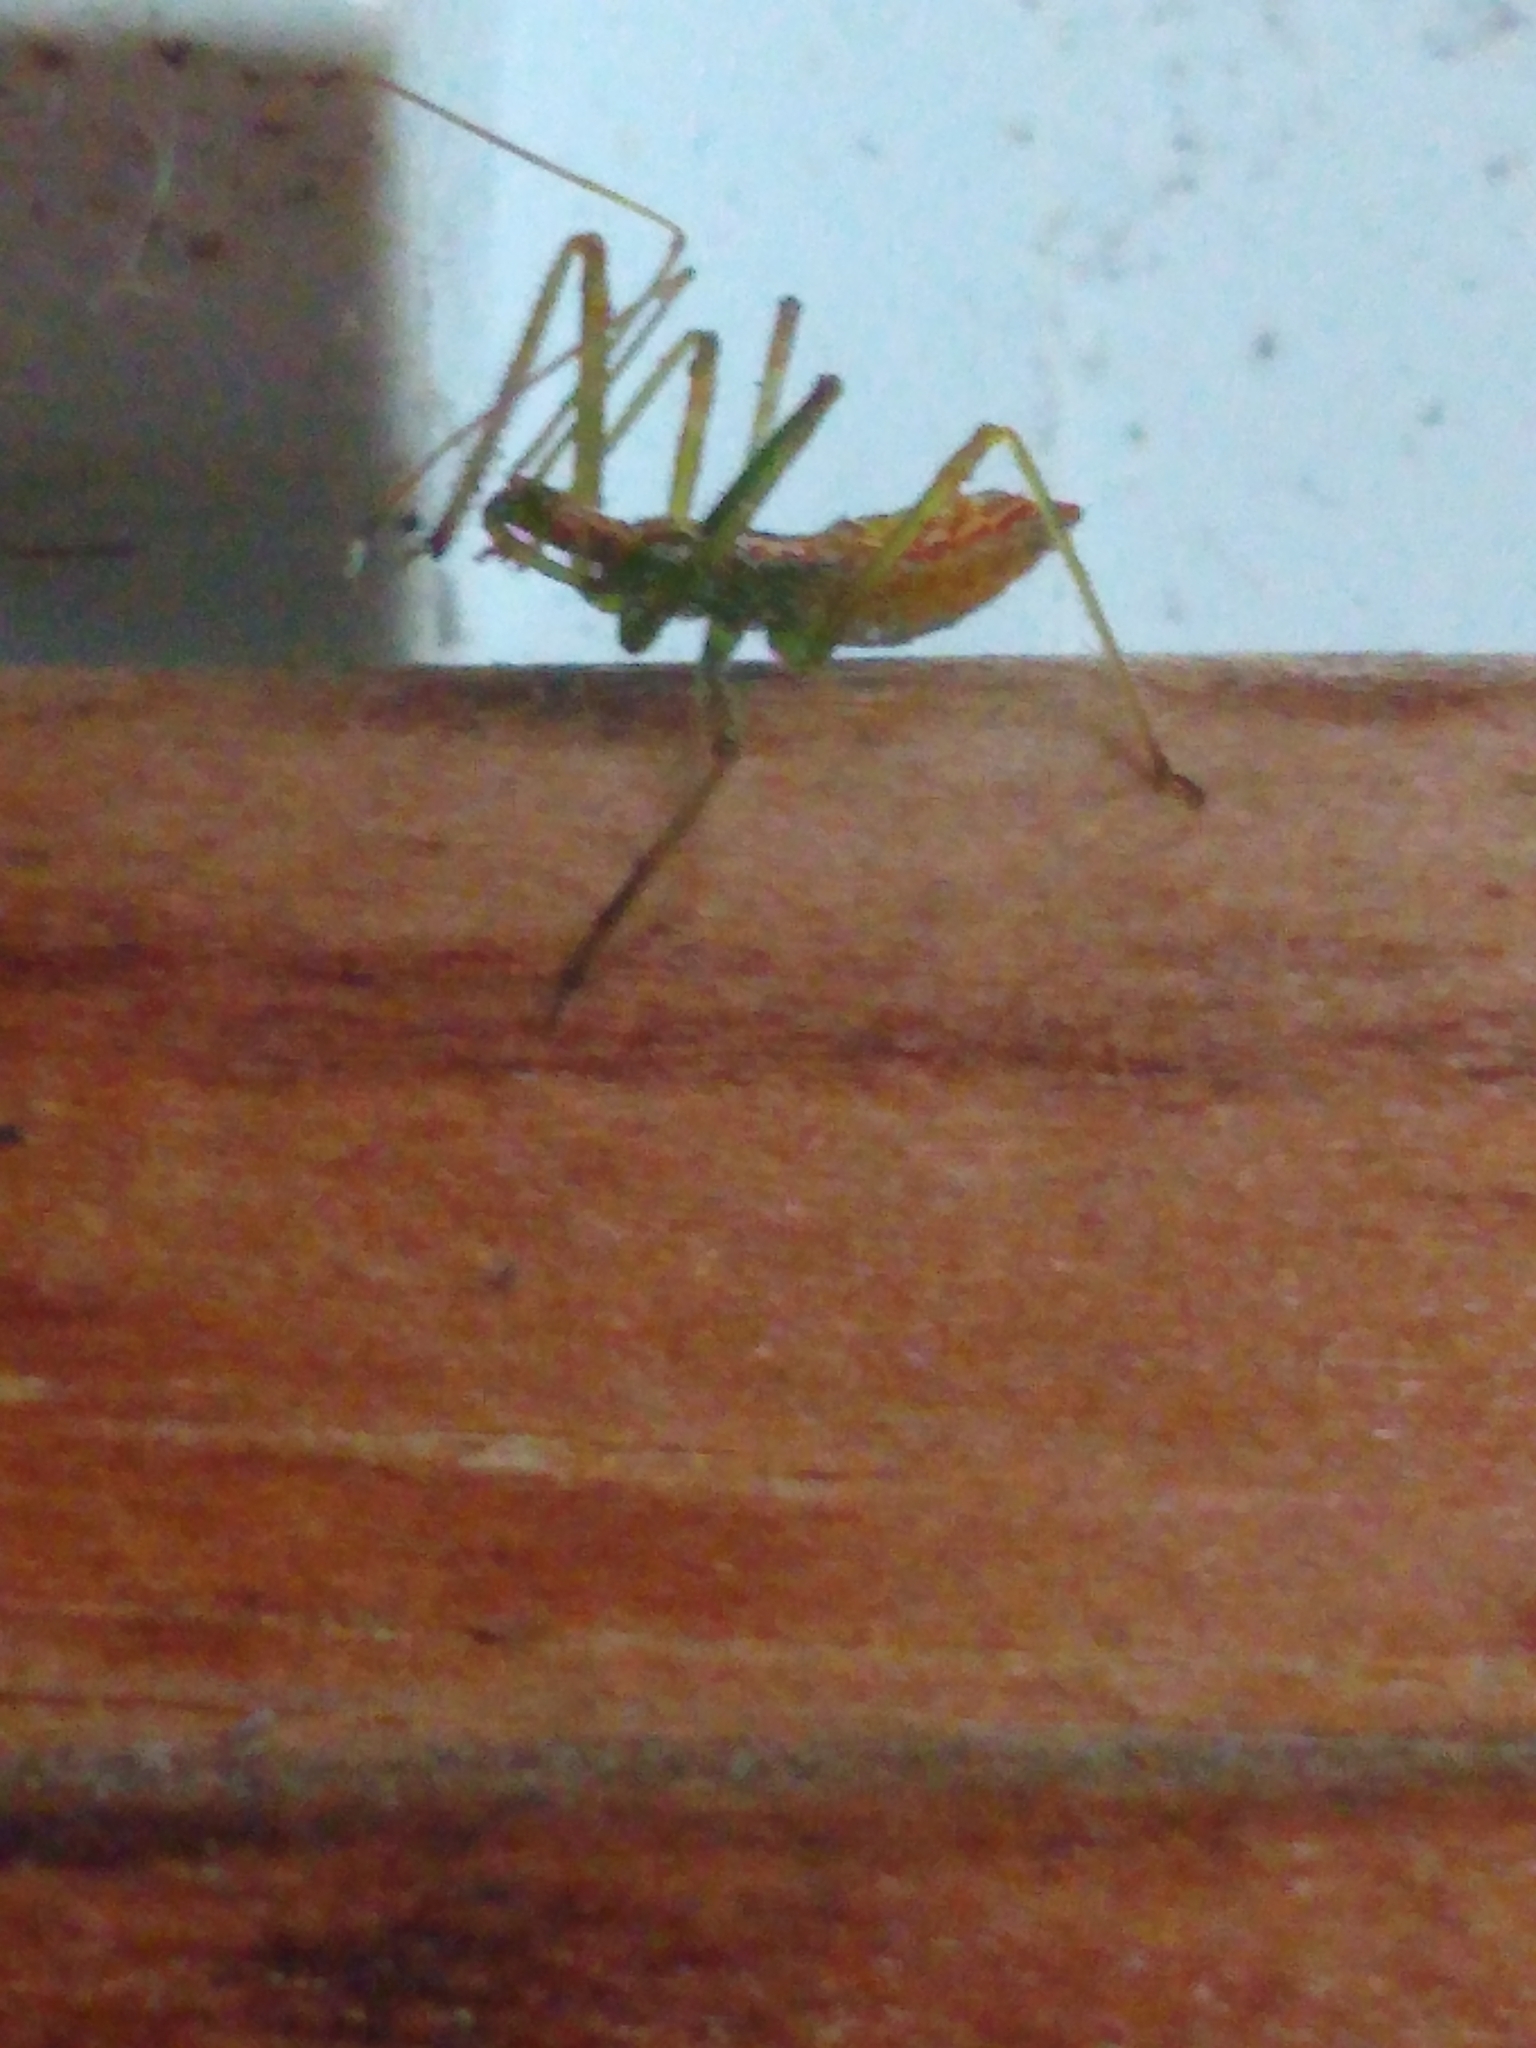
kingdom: Animalia
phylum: Arthropoda
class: Insecta
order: Hemiptera
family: Reduviidae
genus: Zelus
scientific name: Zelus luridus
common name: Pale green assassin bug
